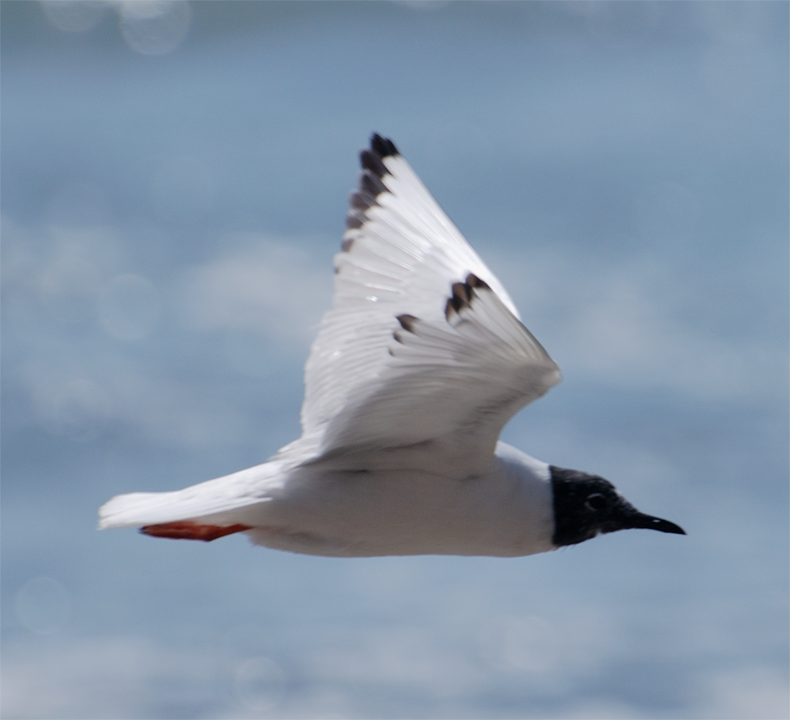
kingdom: Animalia
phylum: Chordata
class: Aves
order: Charadriiformes
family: Laridae
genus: Chroicocephalus
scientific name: Chroicocephalus philadelphia
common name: Bonaparte's gull
